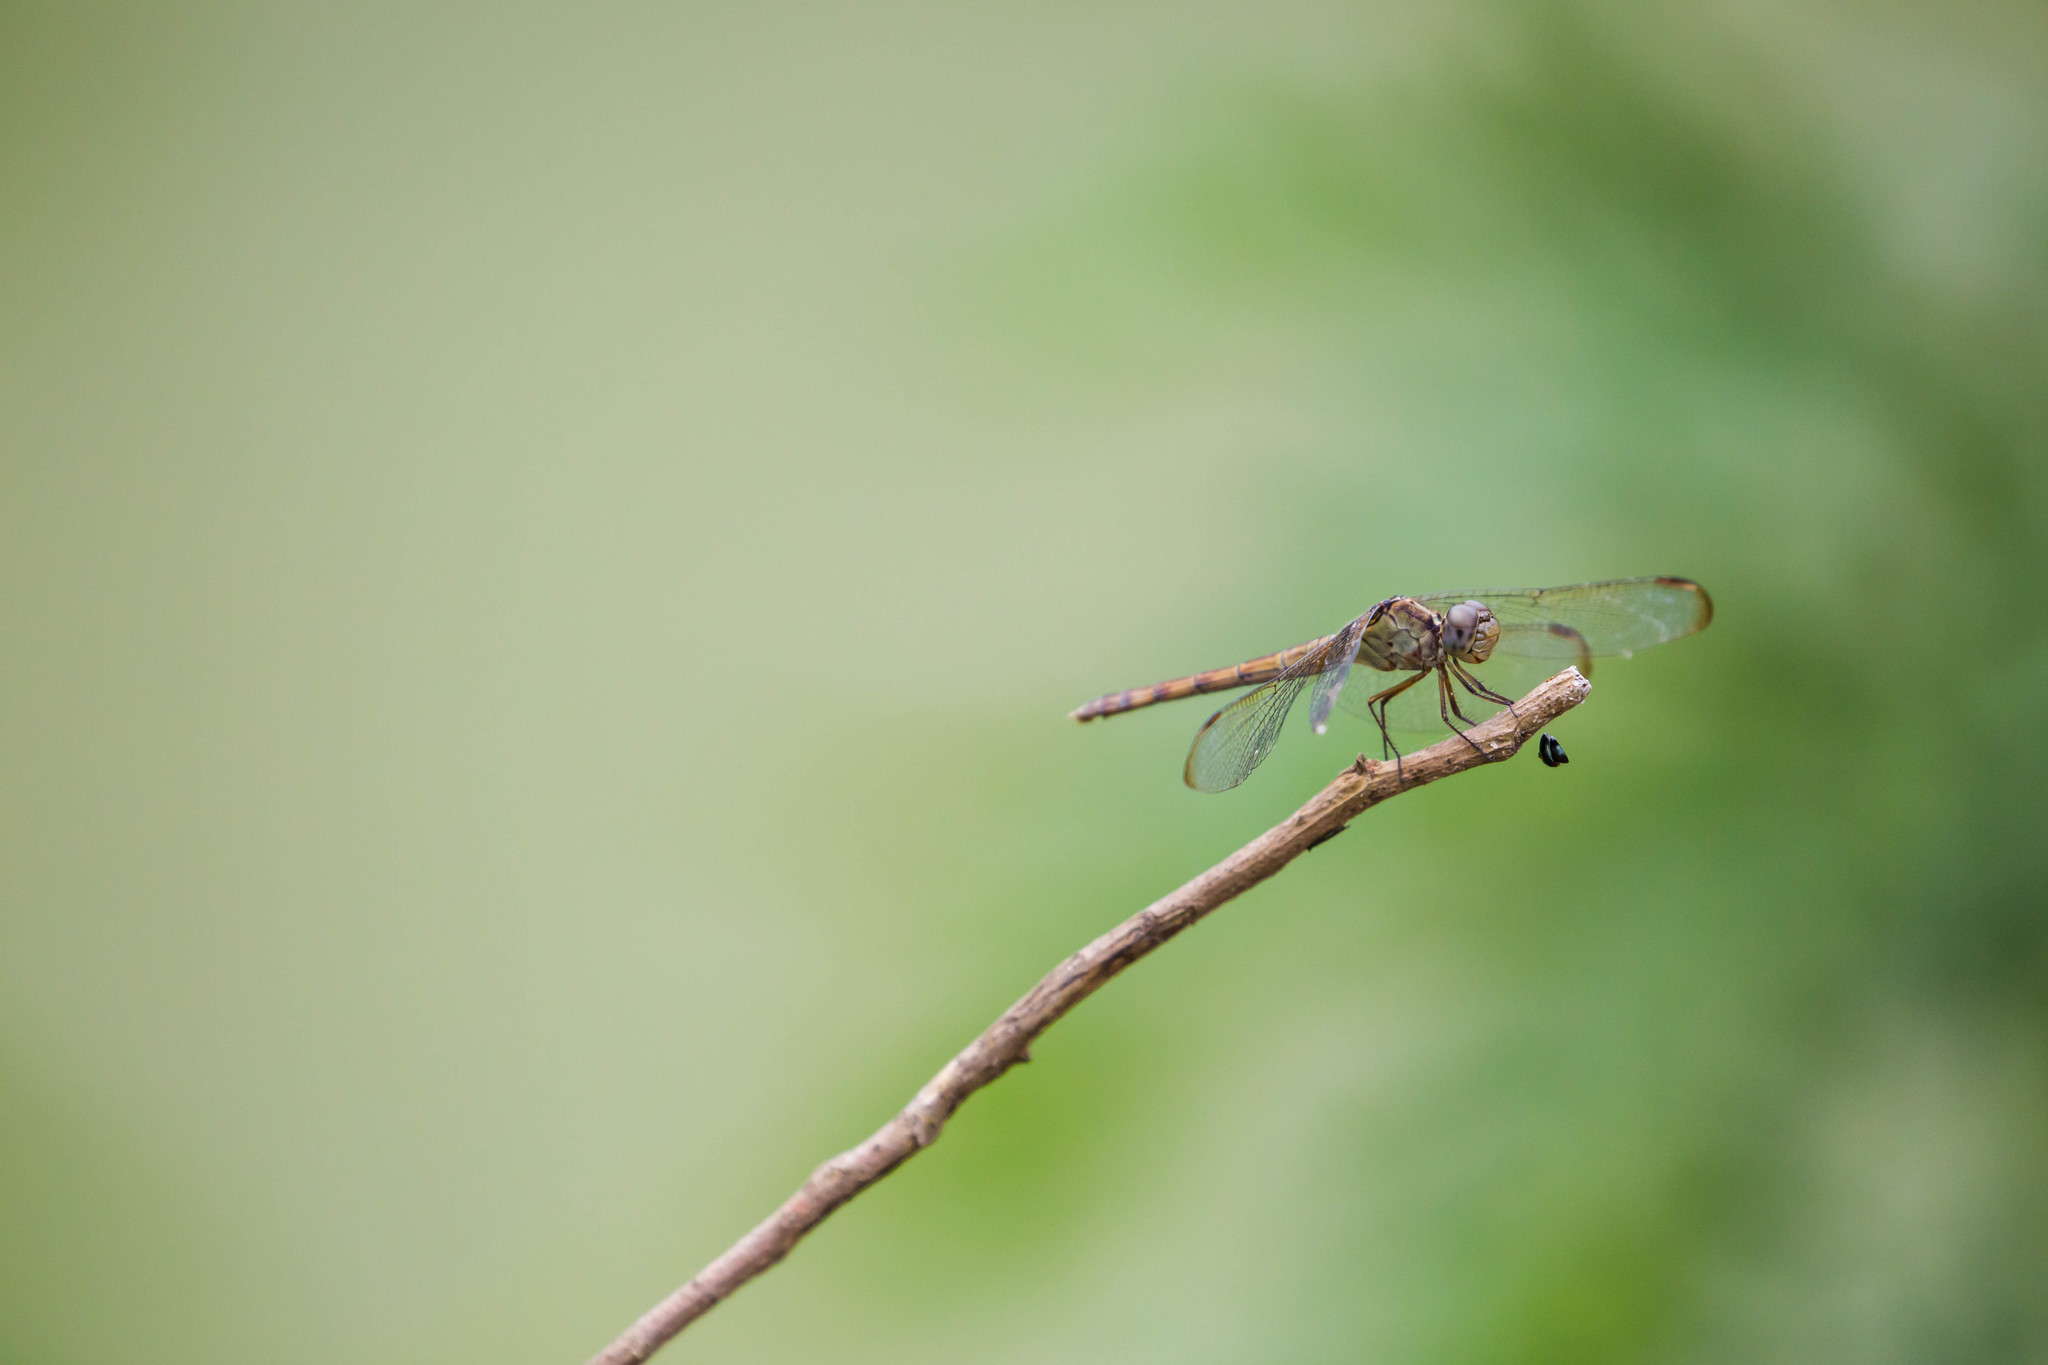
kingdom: Animalia
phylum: Arthropoda
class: Insecta
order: Odonata
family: Libellulidae
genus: Erythrodiplax
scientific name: Erythrodiplax umbrata
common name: Band-winged dragonlet
